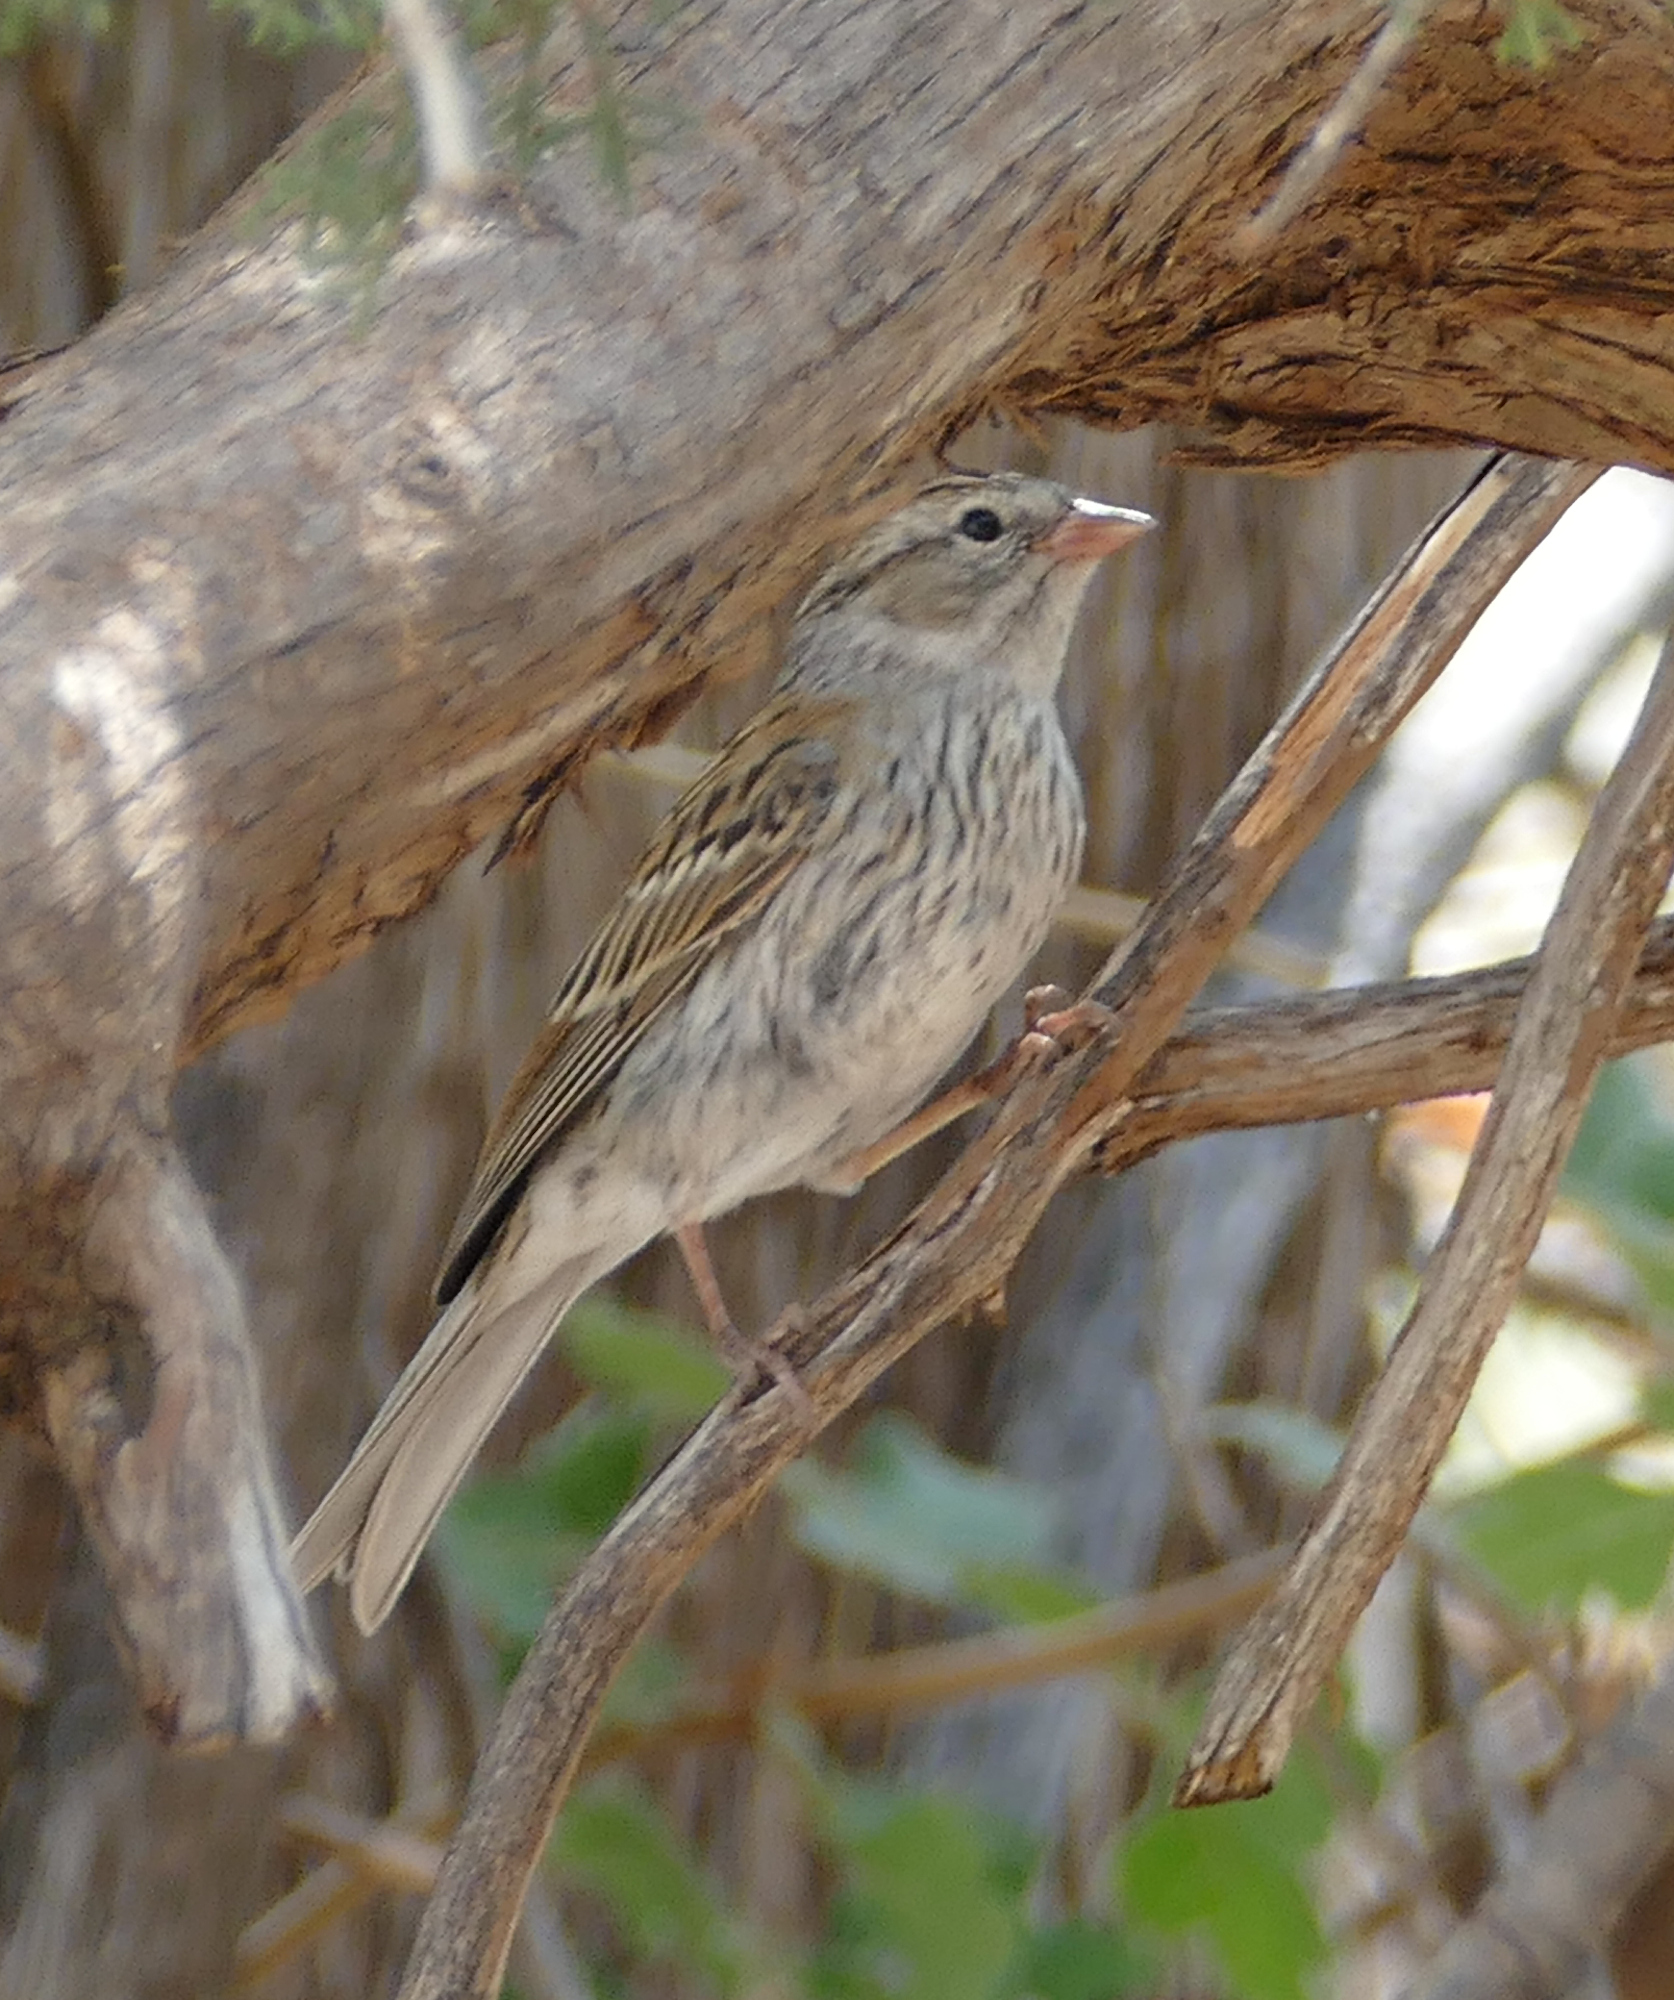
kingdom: Animalia
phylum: Chordata
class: Aves
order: Passeriformes
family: Passerellidae
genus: Spizella
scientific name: Spizella passerina
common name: Chipping sparrow
